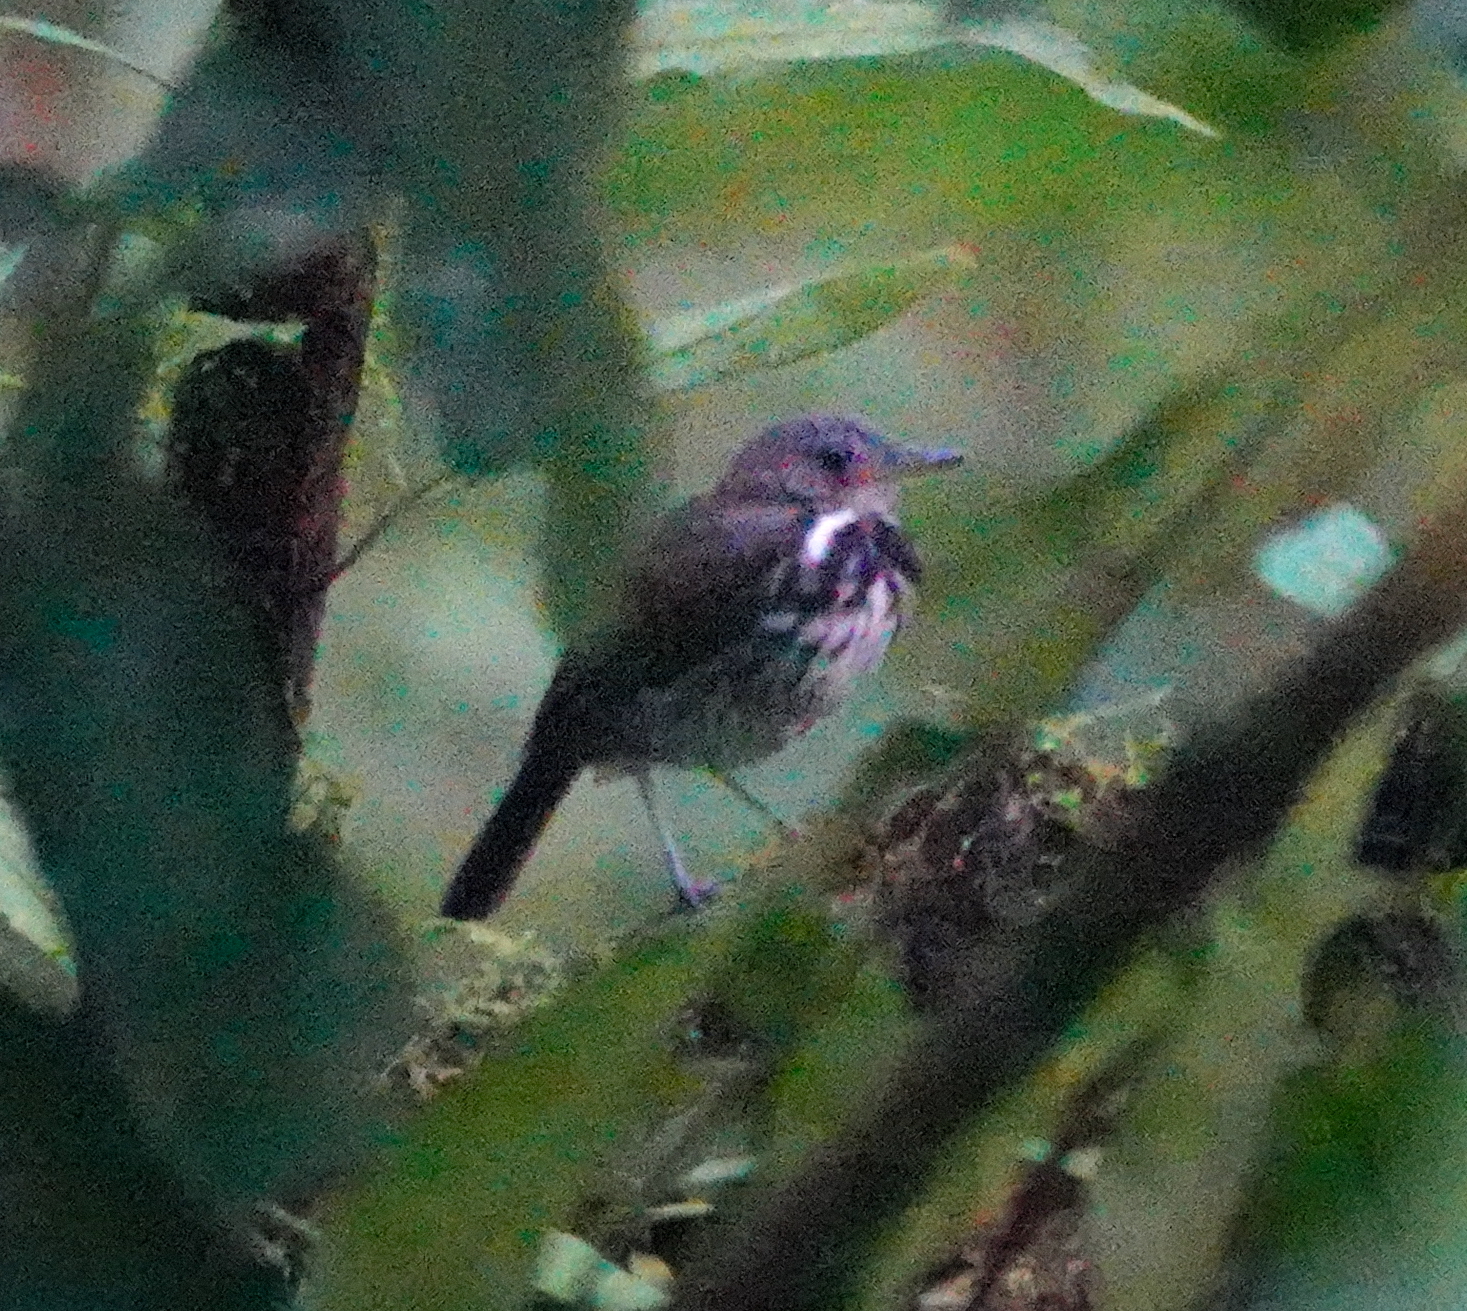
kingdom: Animalia
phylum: Chordata
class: Aves
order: Passeriformes
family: Tyrannidae
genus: Corythopis
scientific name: Corythopis torquatus
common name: Ringed antpipit
